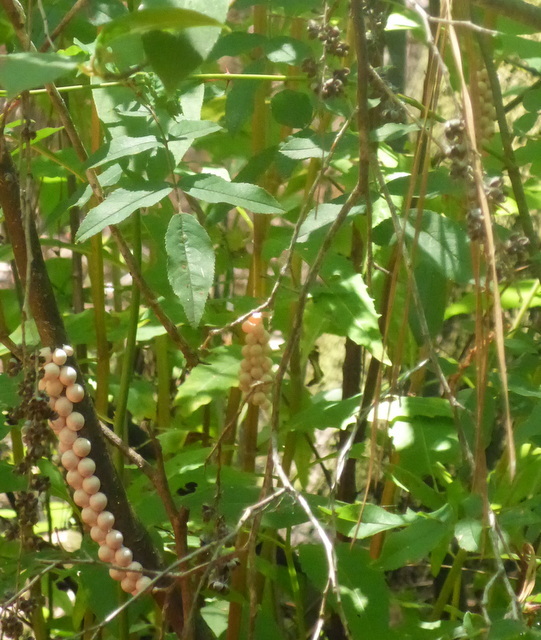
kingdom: Animalia
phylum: Mollusca
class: Gastropoda
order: Architaenioglossa
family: Ampullariidae
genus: Pomacea
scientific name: Pomacea paludosa
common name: Florida applesnail
